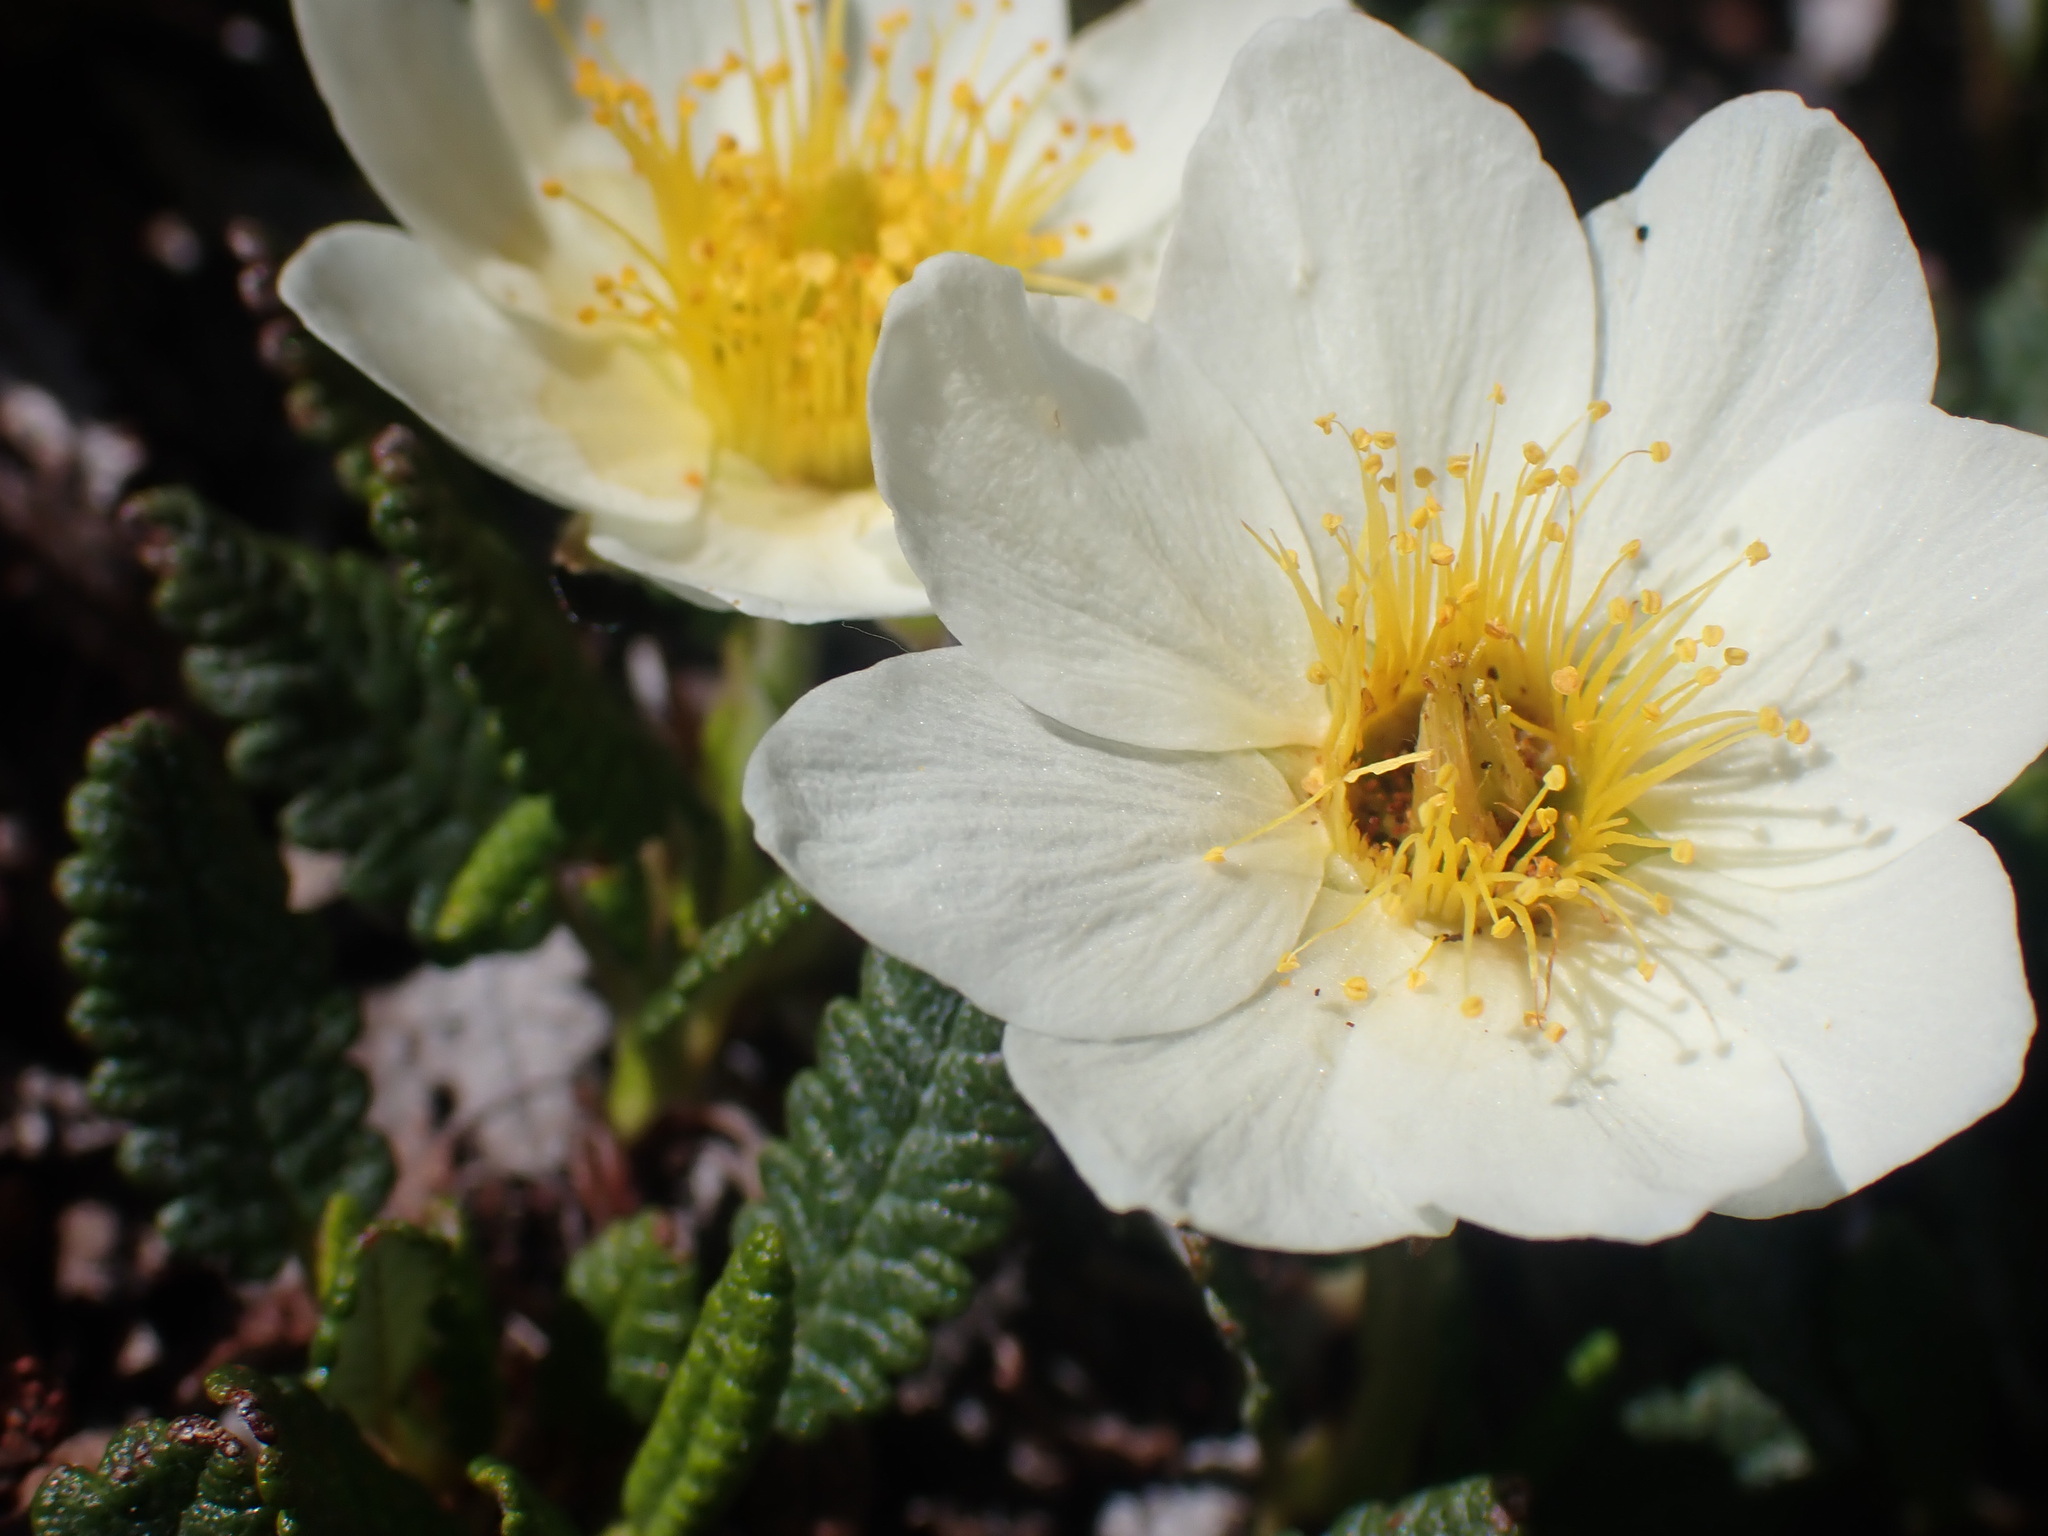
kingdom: Plantae
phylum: Tracheophyta
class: Magnoliopsida
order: Rosales
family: Rosaceae
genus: Dryas
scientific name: Dryas octopetala
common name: Eight-petal mountain-avens
